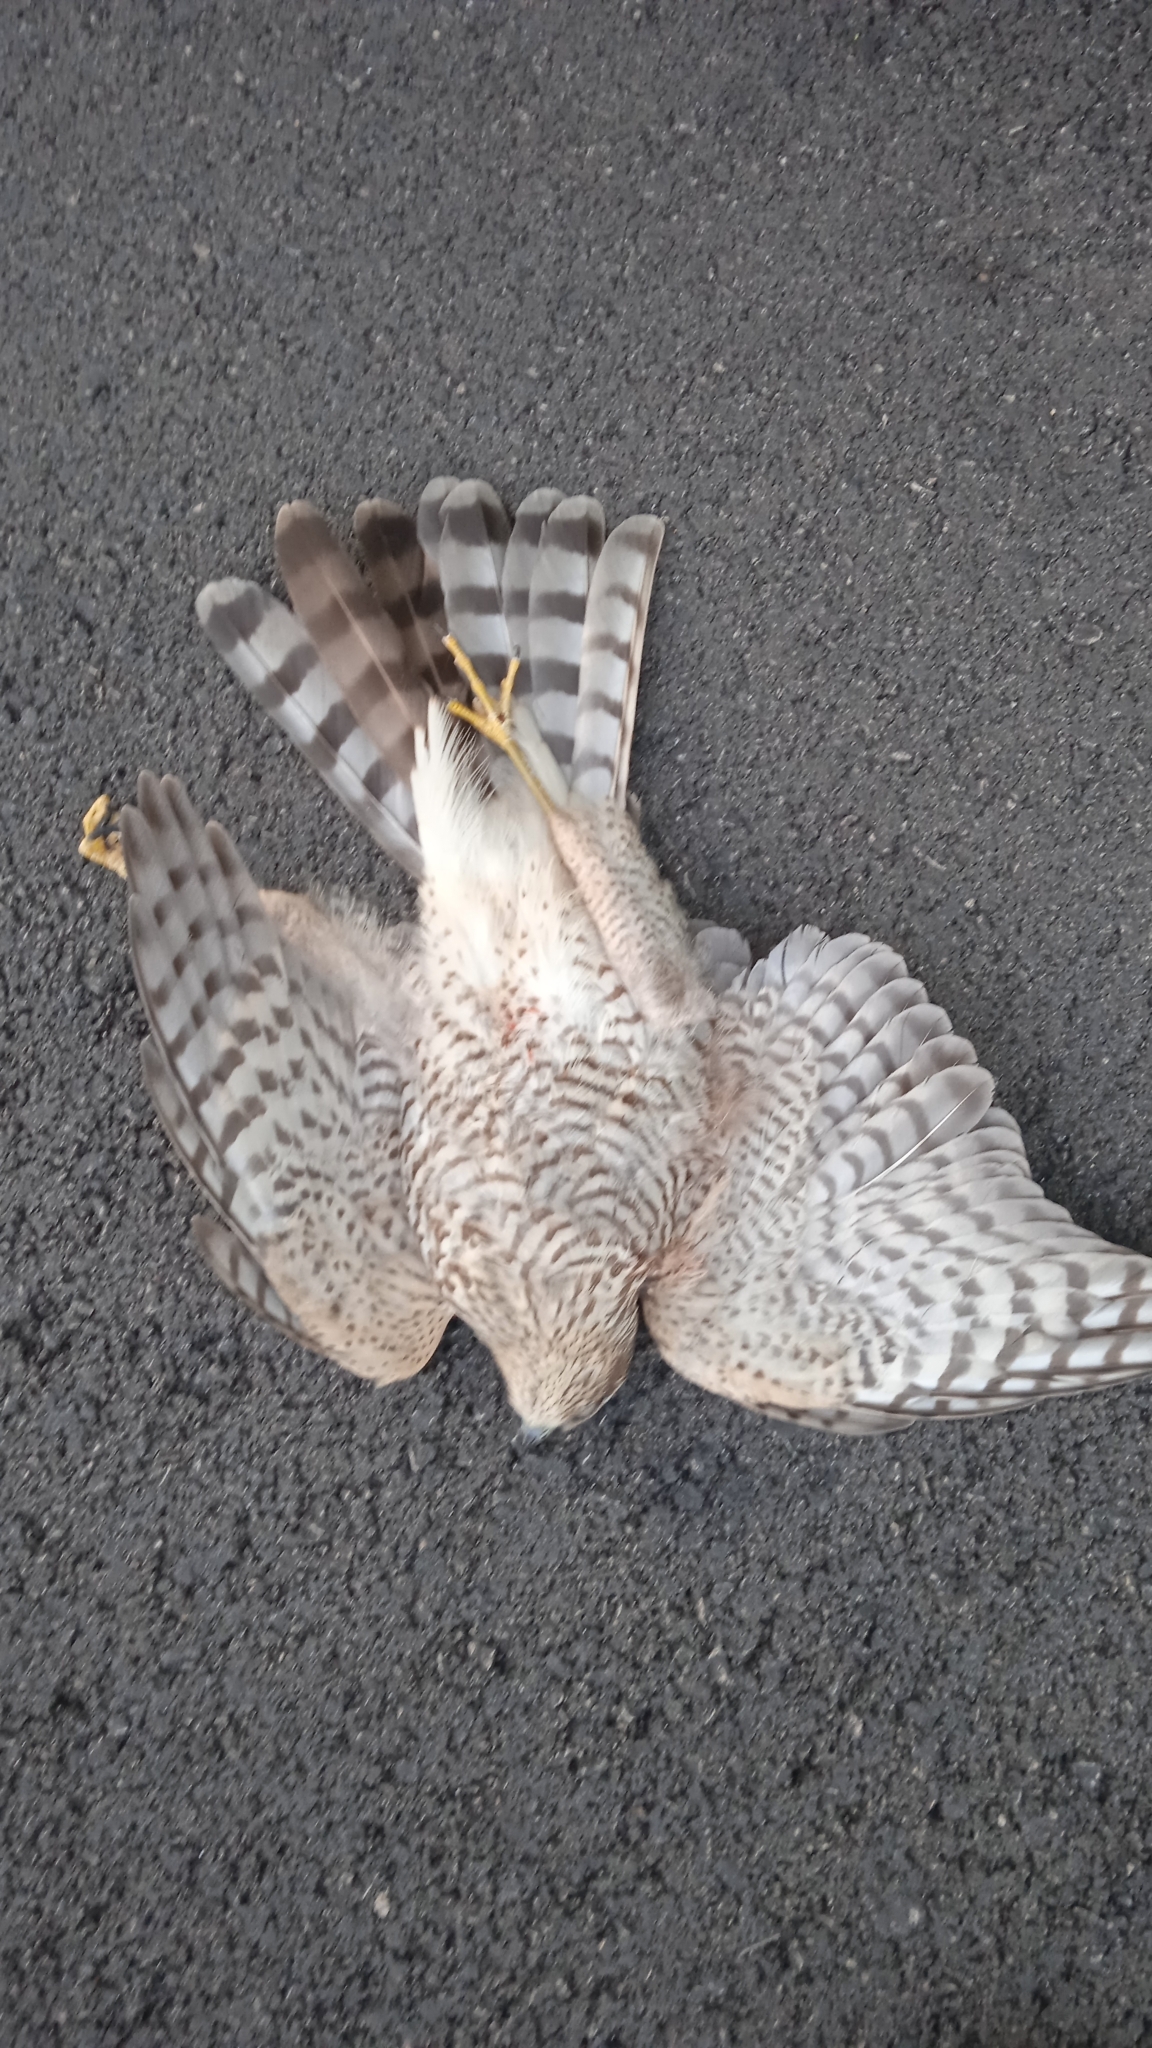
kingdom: Animalia
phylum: Chordata
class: Aves
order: Accipitriformes
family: Accipitridae
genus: Accipiter
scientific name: Accipiter nisus
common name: Eurasian sparrowhawk
